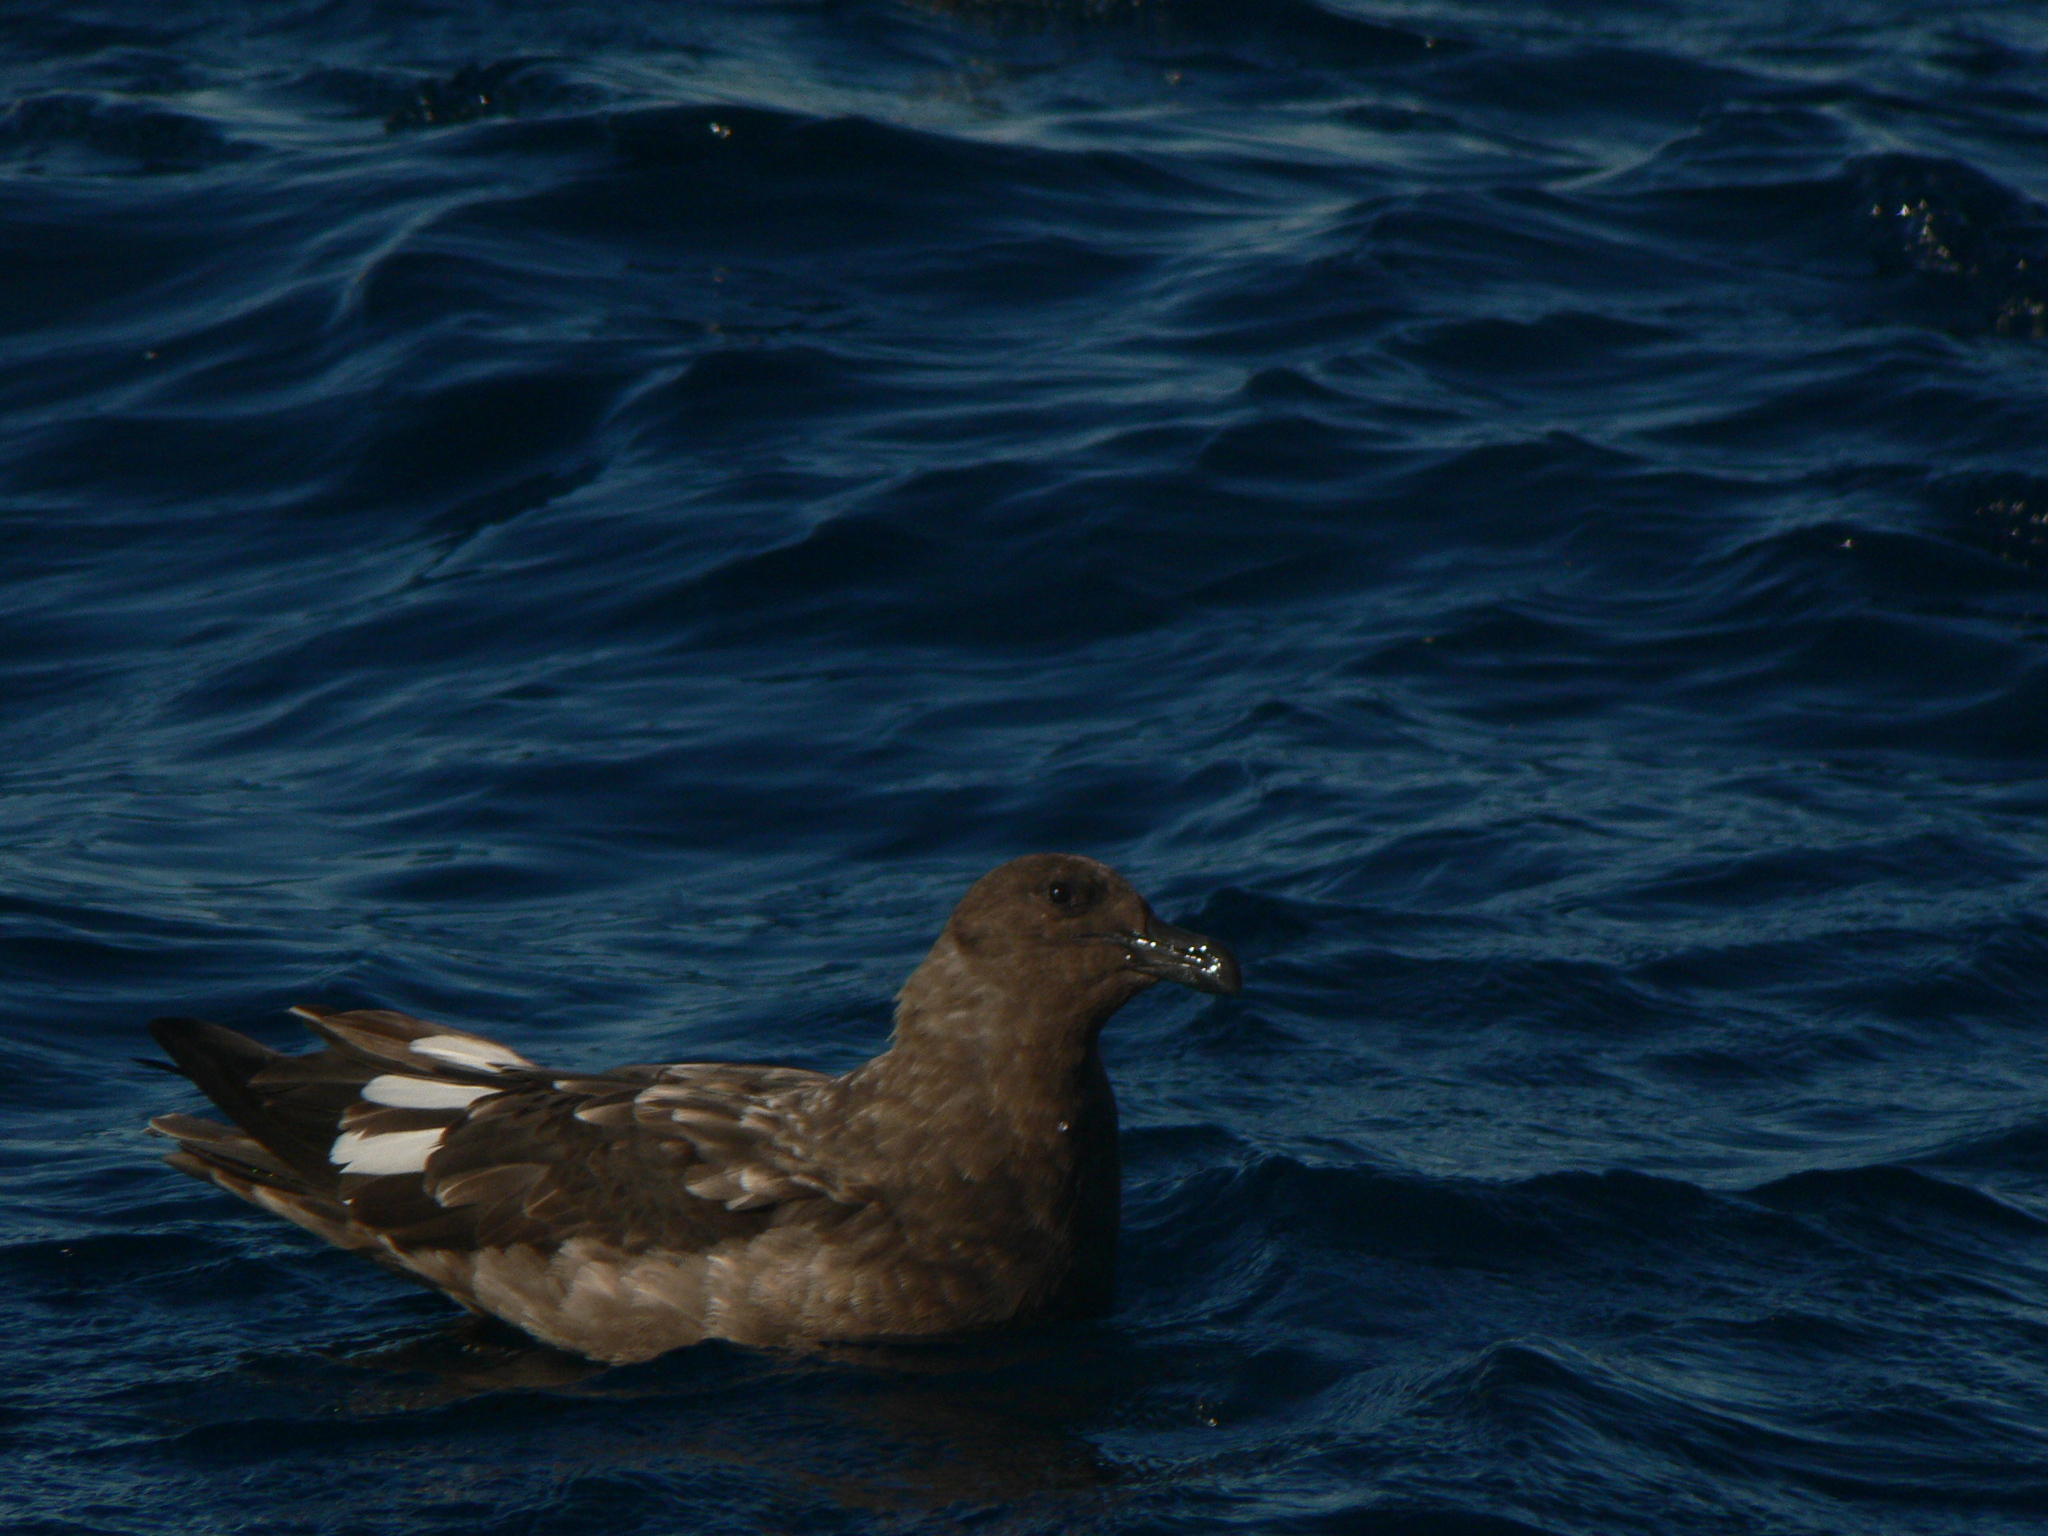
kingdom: Animalia
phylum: Chordata
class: Aves
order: Charadriiformes
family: Stercorariidae
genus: Stercorarius
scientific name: Stercorarius antarcticus
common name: Brown skua
